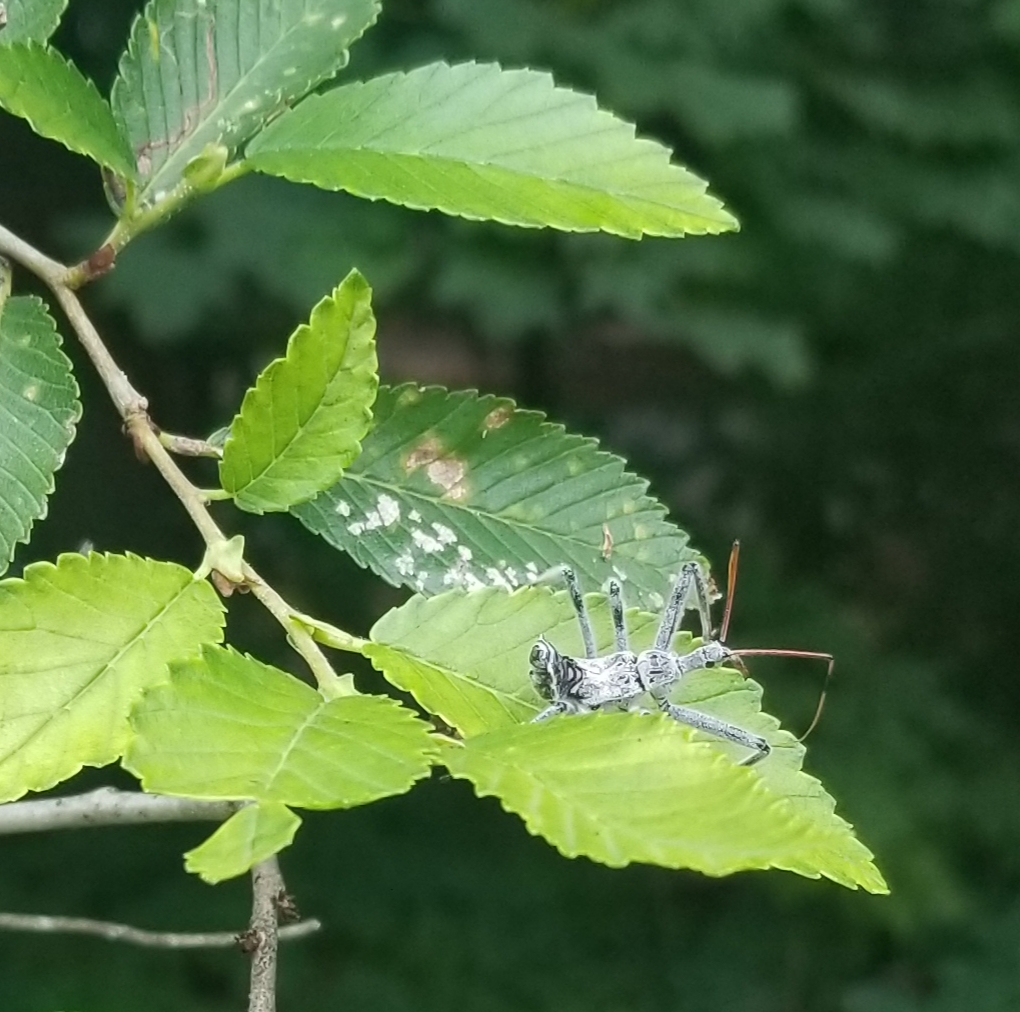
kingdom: Animalia
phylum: Arthropoda
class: Insecta
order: Hemiptera
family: Reduviidae
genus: Arilus
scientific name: Arilus cristatus
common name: North american wheel bug
